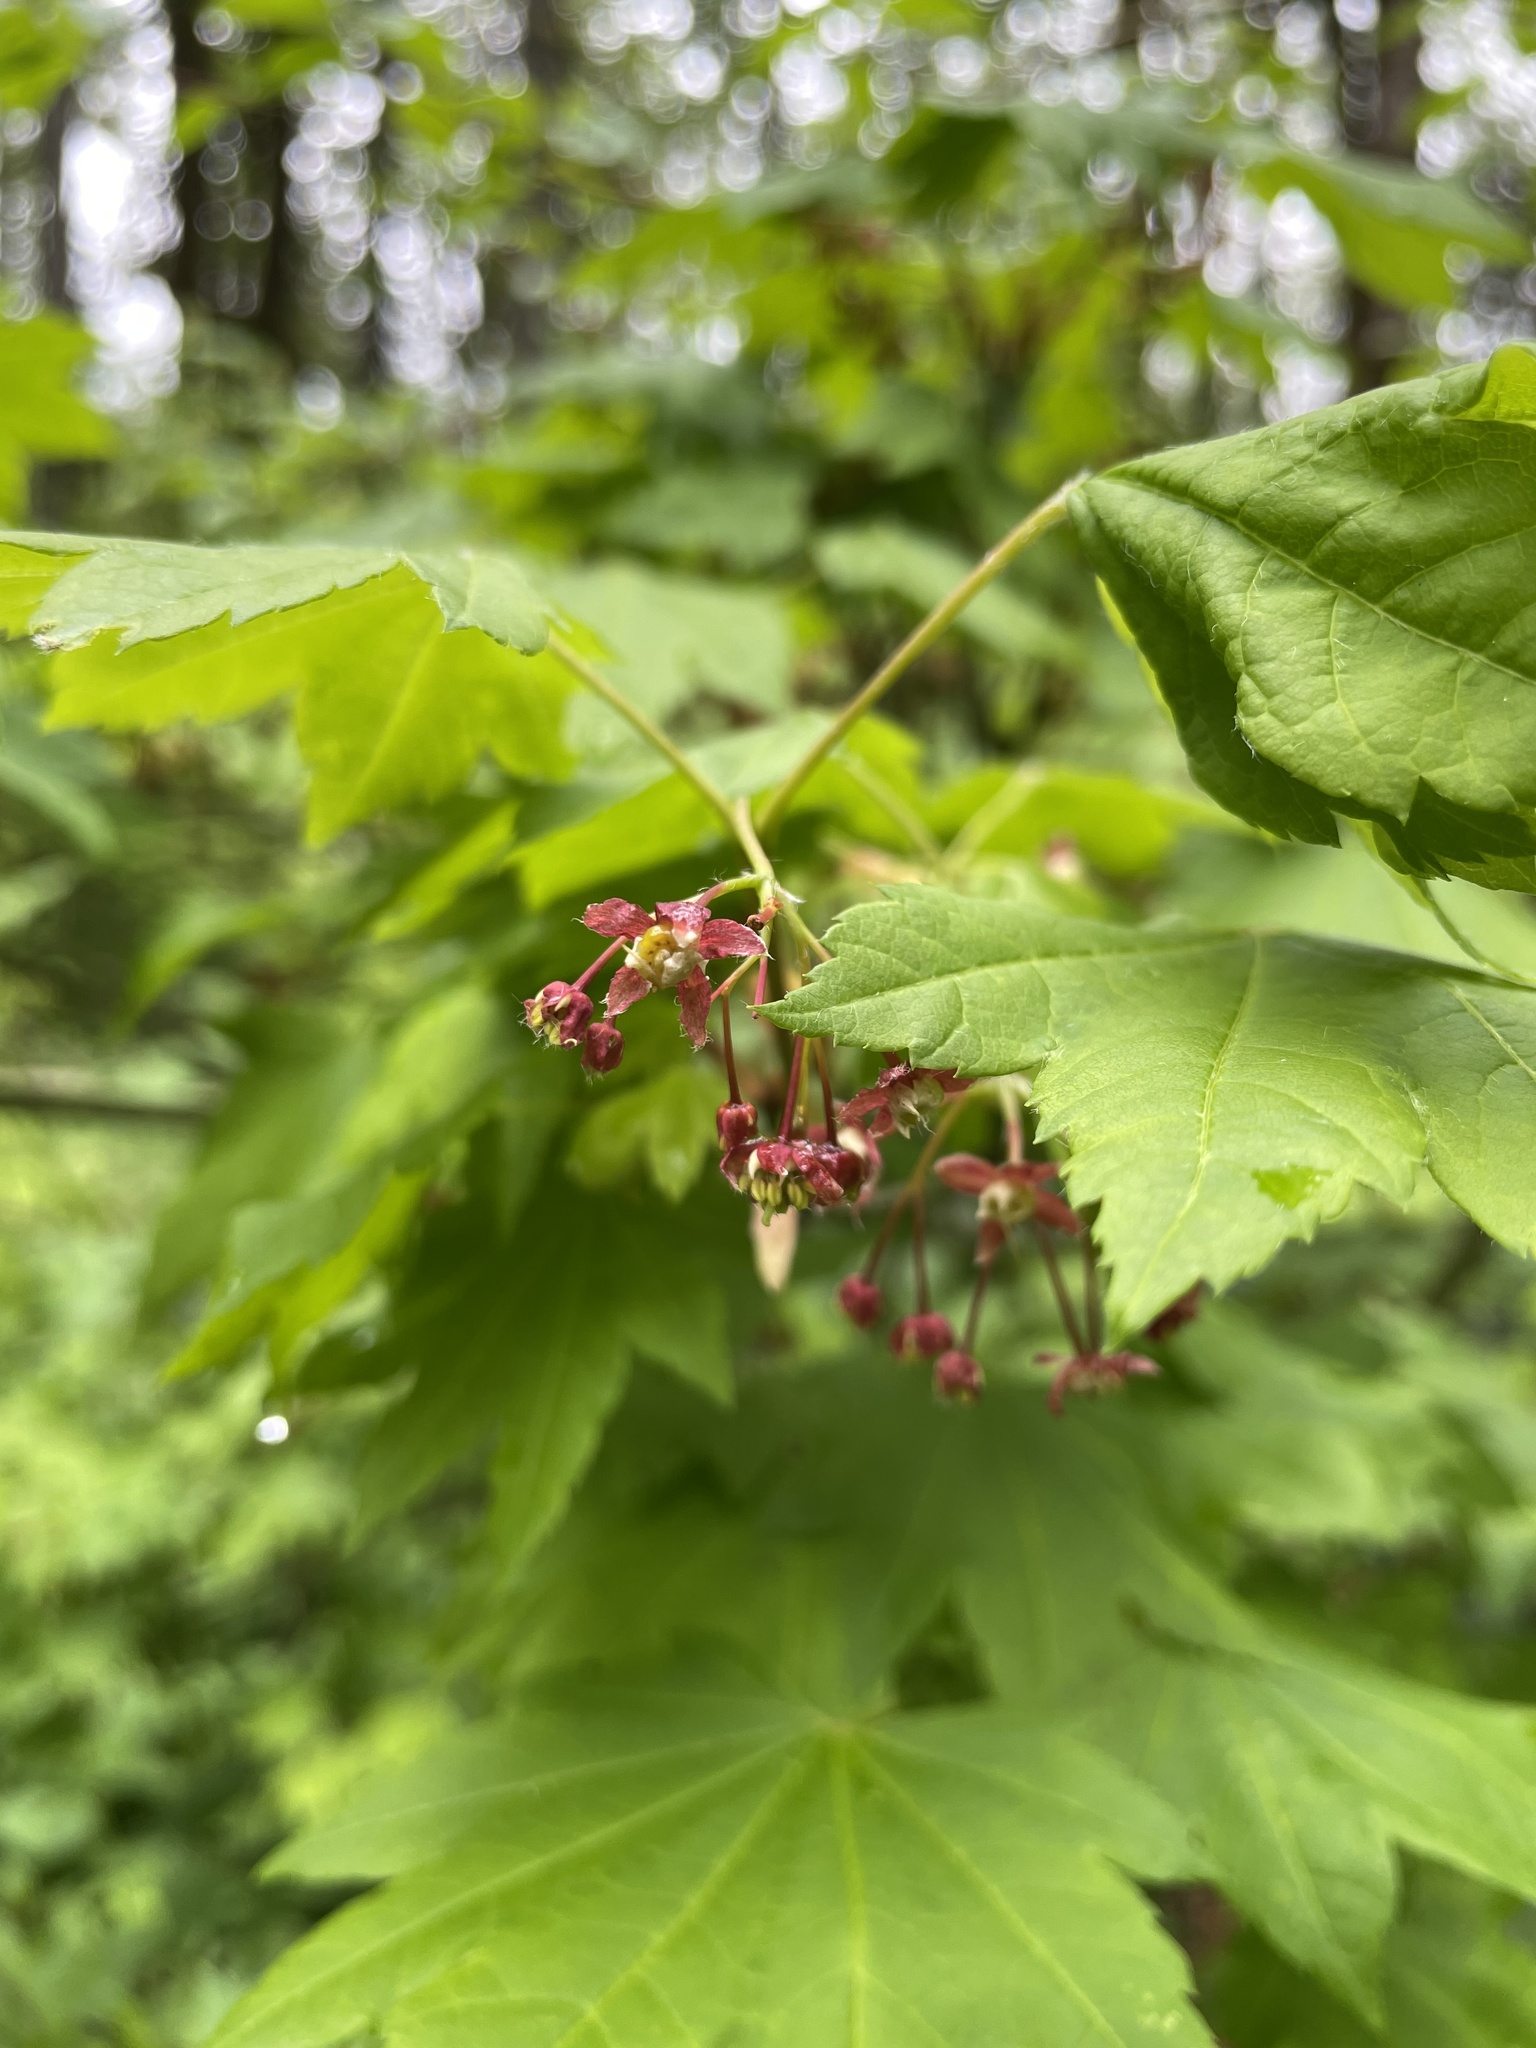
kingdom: Plantae
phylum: Tracheophyta
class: Magnoliopsida
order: Sapindales
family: Sapindaceae
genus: Acer
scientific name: Acer circinatum
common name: Vine maple
